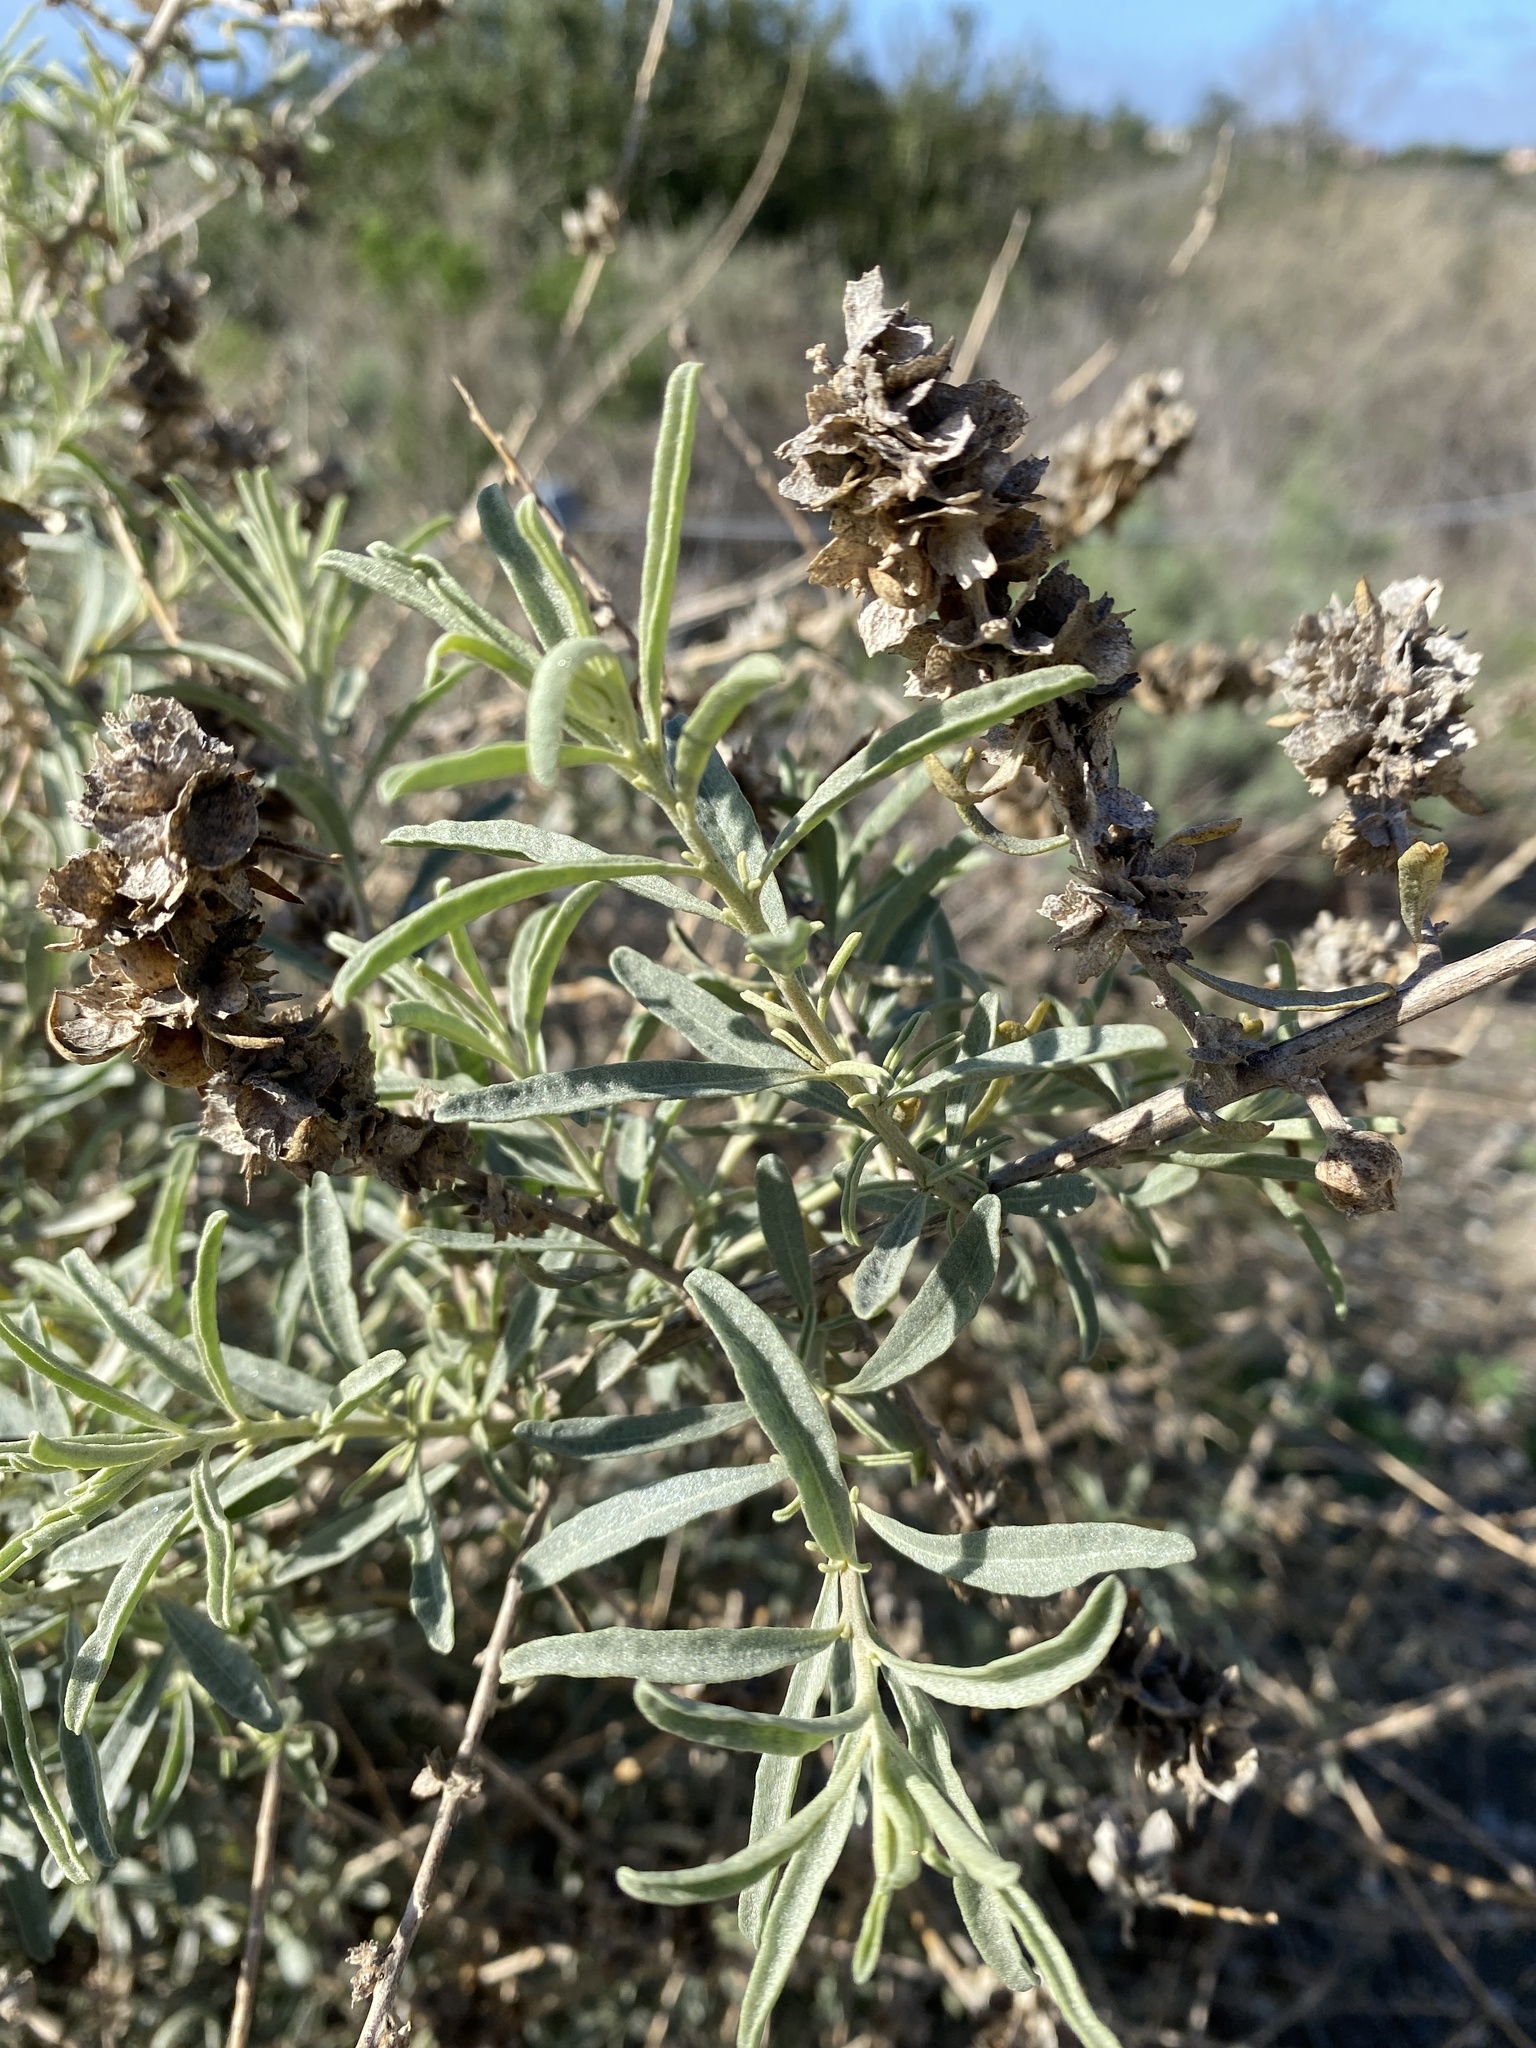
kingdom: Plantae
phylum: Tracheophyta
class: Magnoliopsida
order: Caryophyllales
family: Amaranthaceae
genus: Atriplex
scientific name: Atriplex canescens
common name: Four-wing saltbush
